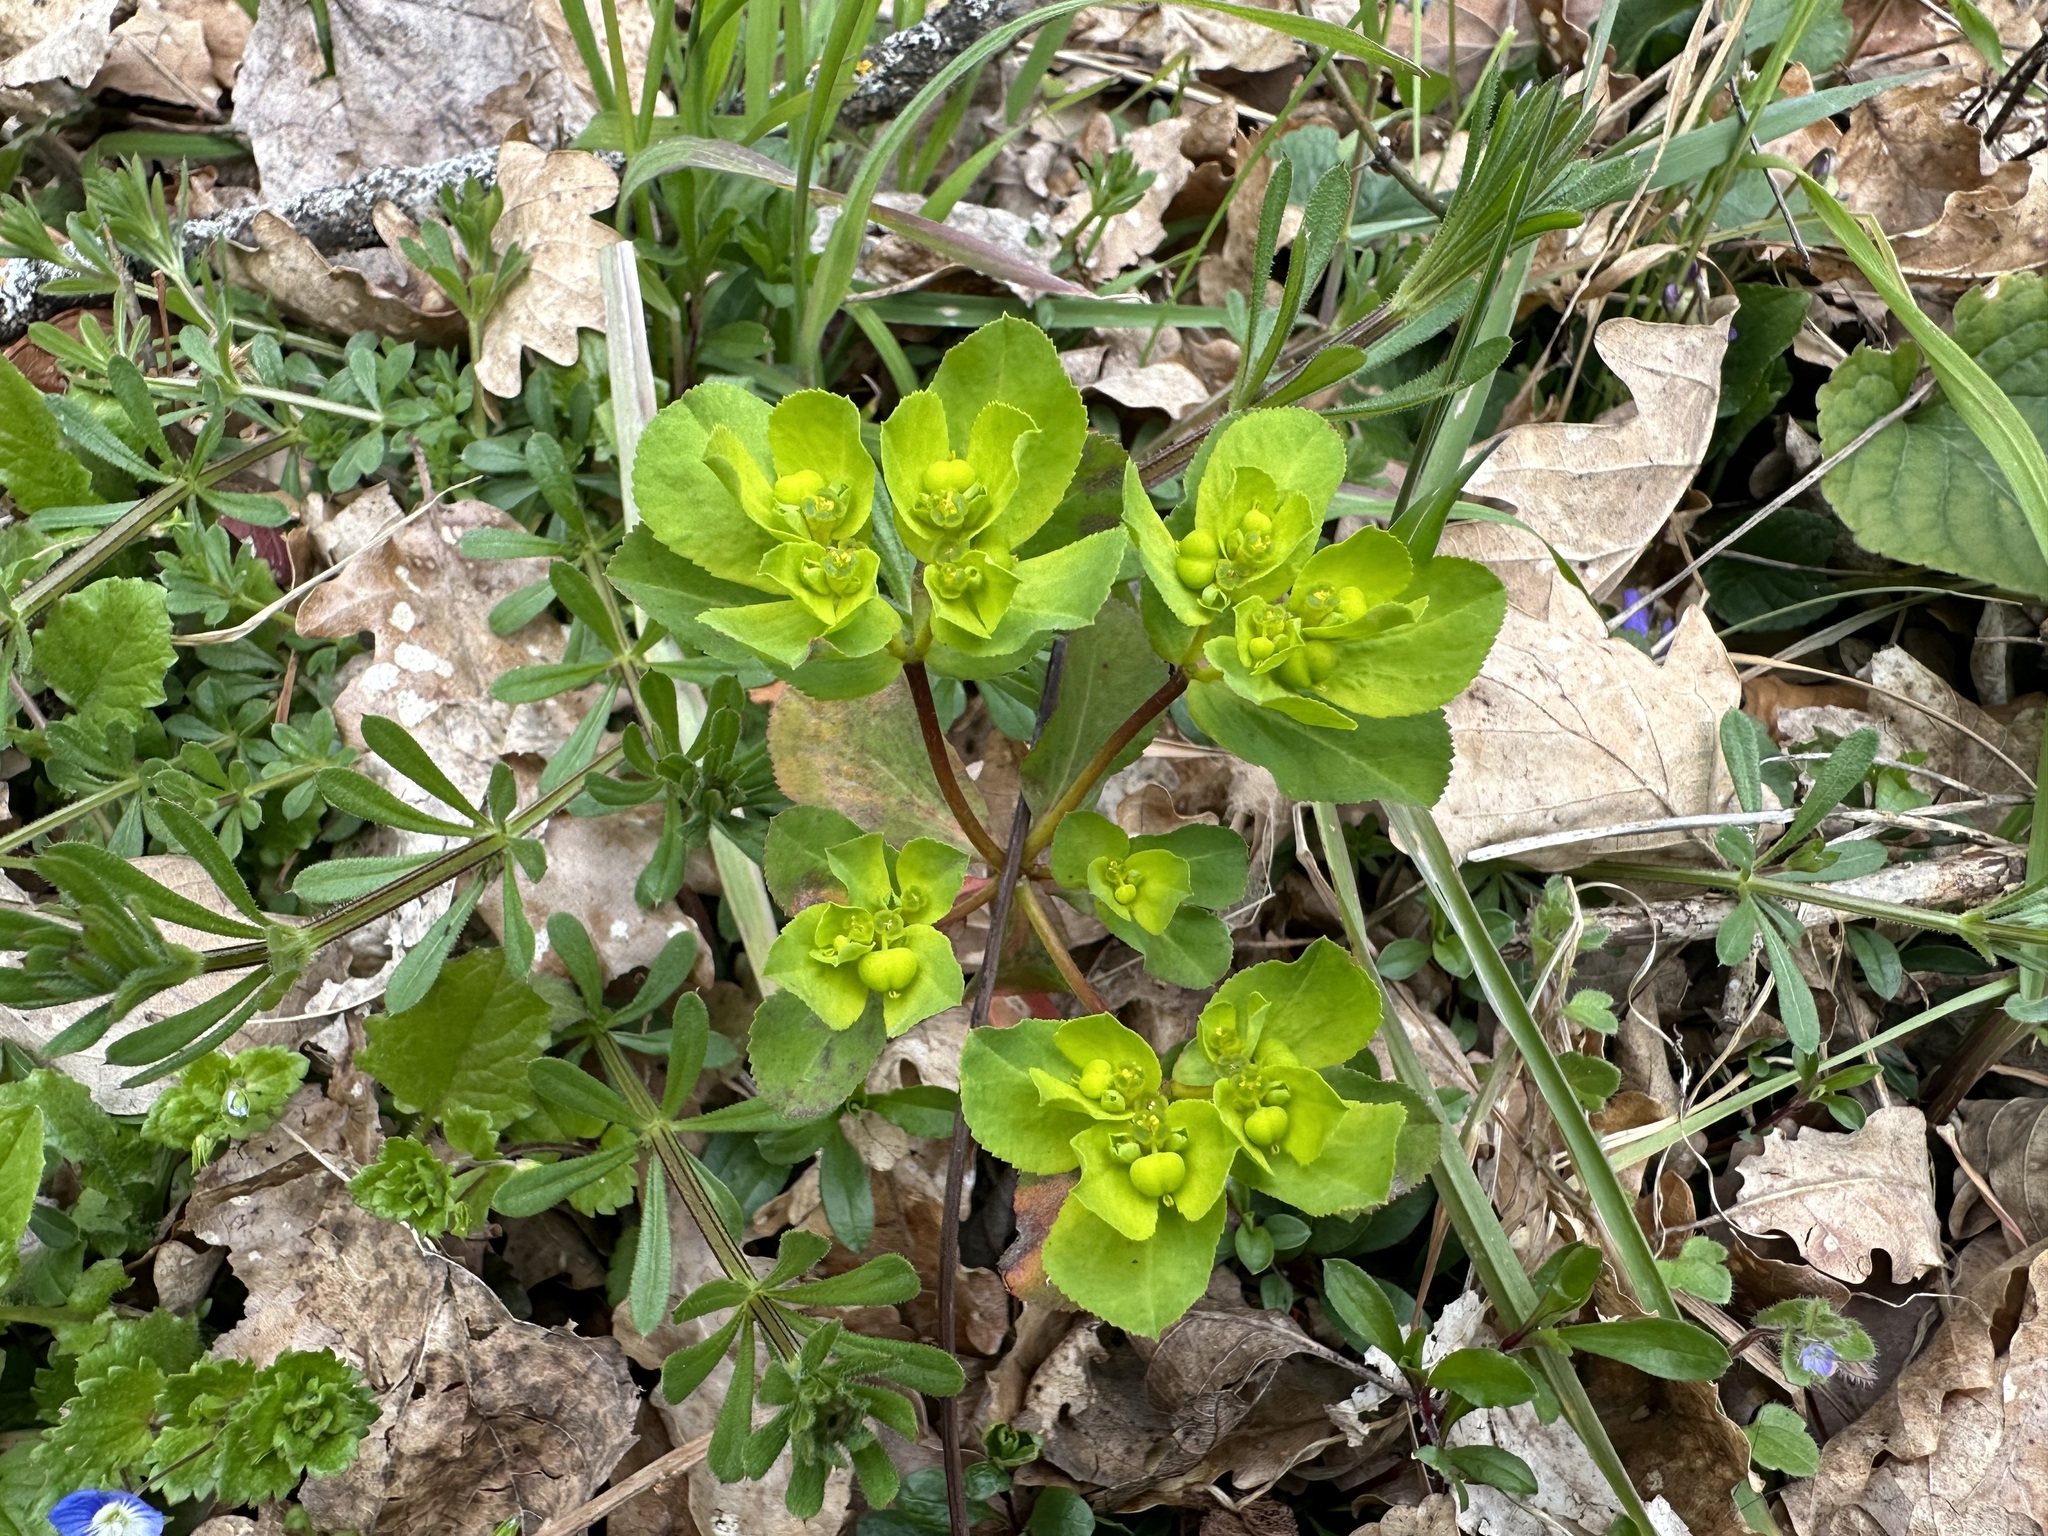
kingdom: Plantae
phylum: Tracheophyta
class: Magnoliopsida
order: Malpighiales
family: Euphorbiaceae
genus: Euphorbia
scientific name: Euphorbia helioscopia
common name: Sun spurge
